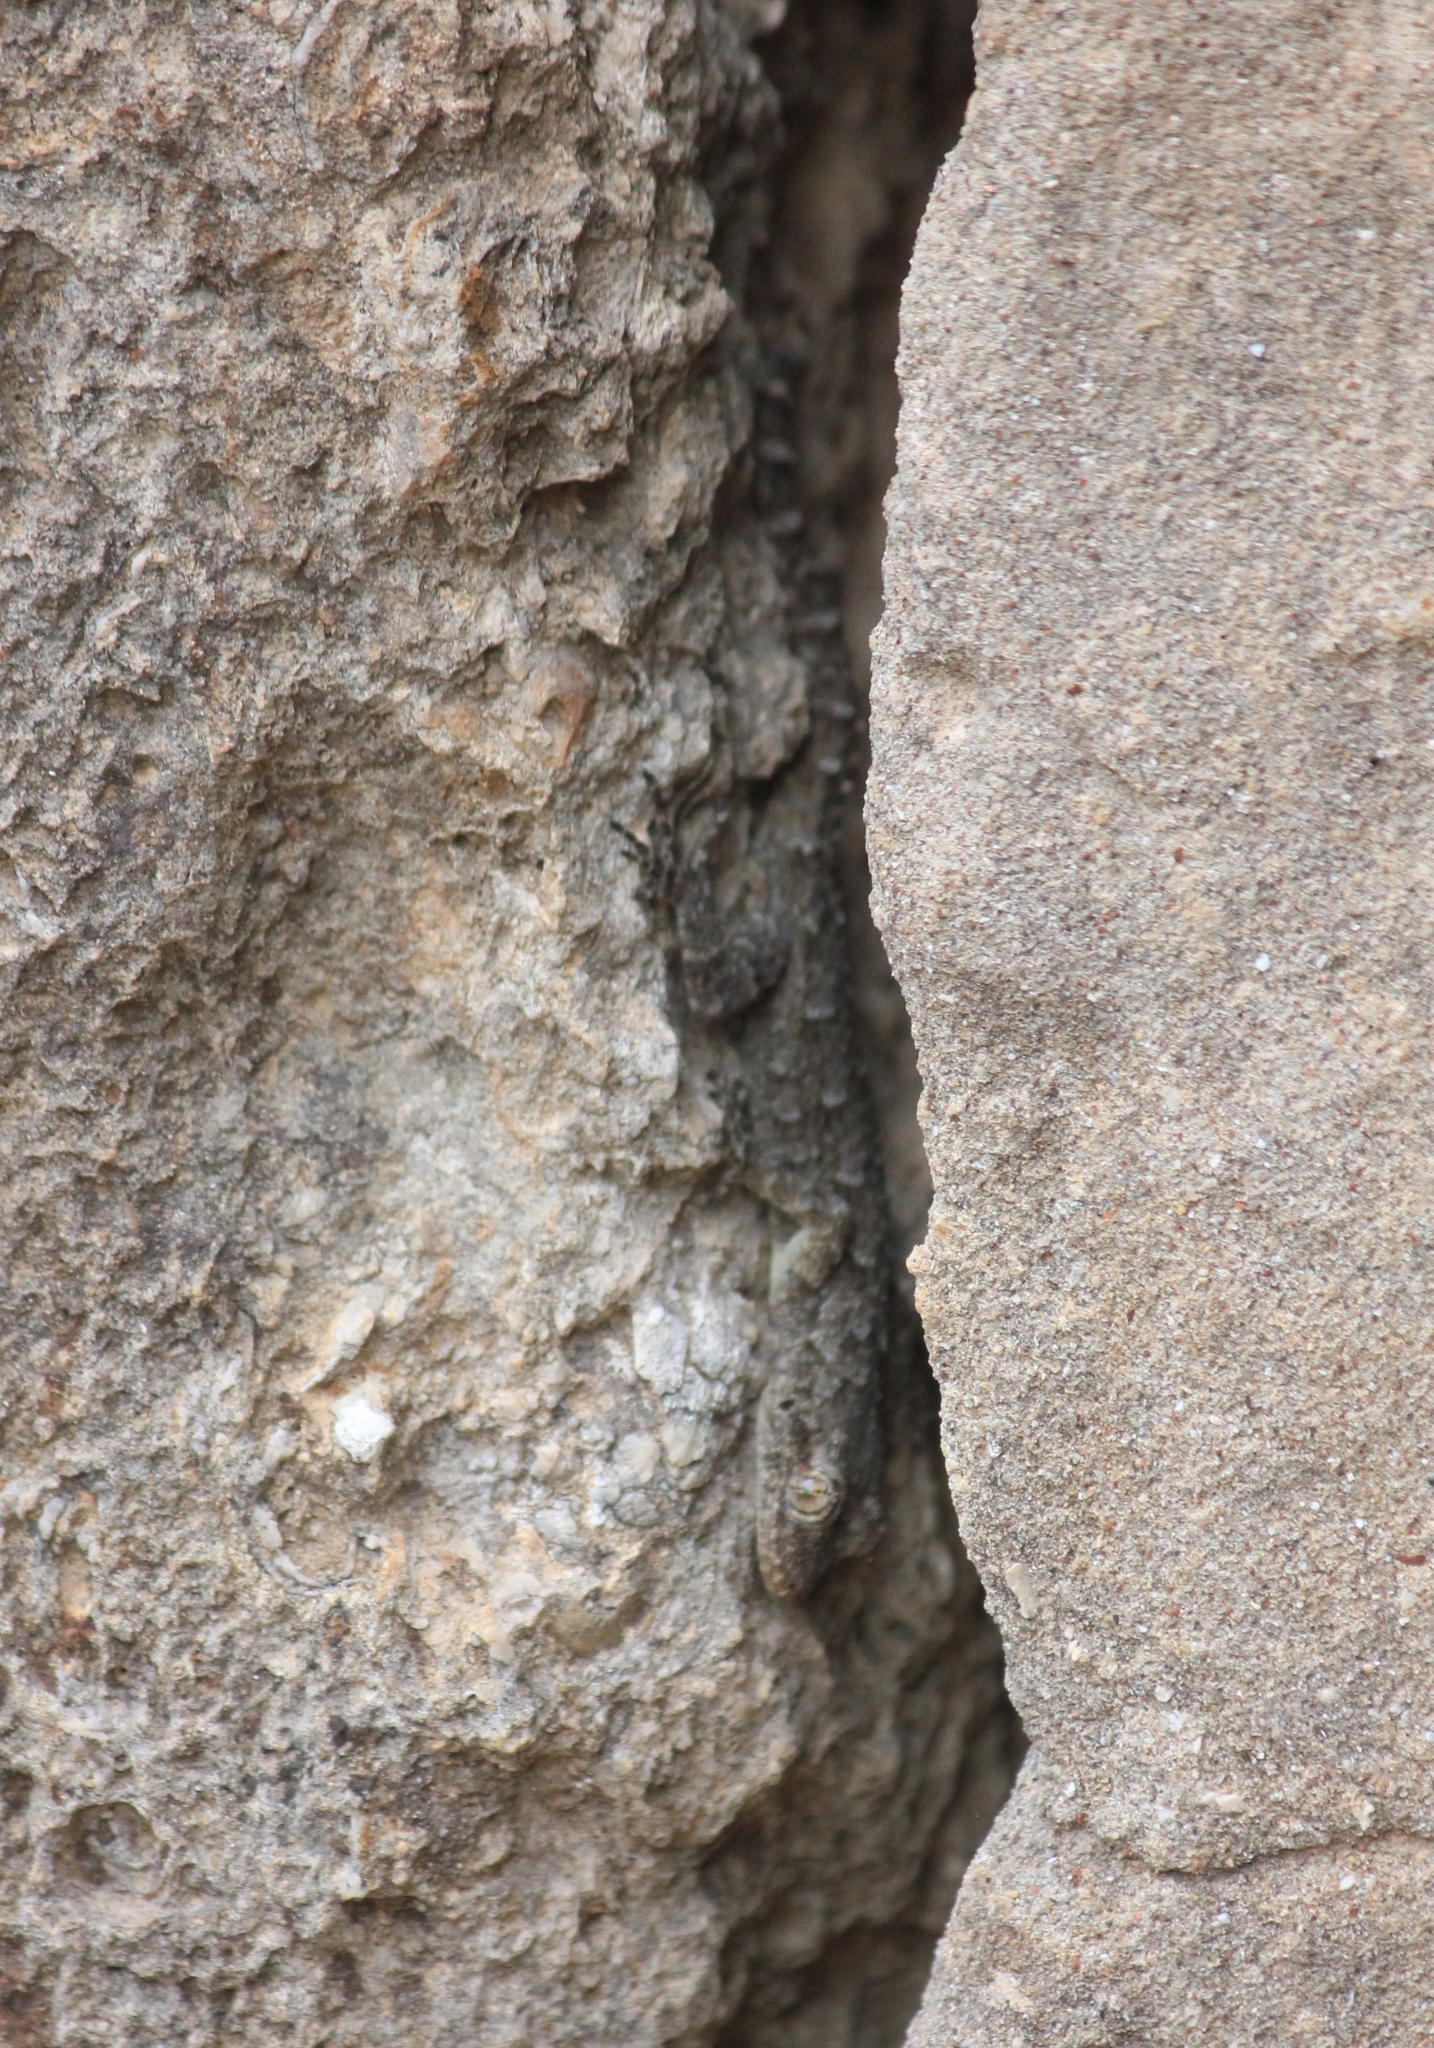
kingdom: Animalia
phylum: Chordata
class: Squamata
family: Gekkonidae
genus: Mediodactylus
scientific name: Mediodactylus kotschyi
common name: Kotschy's gecko
